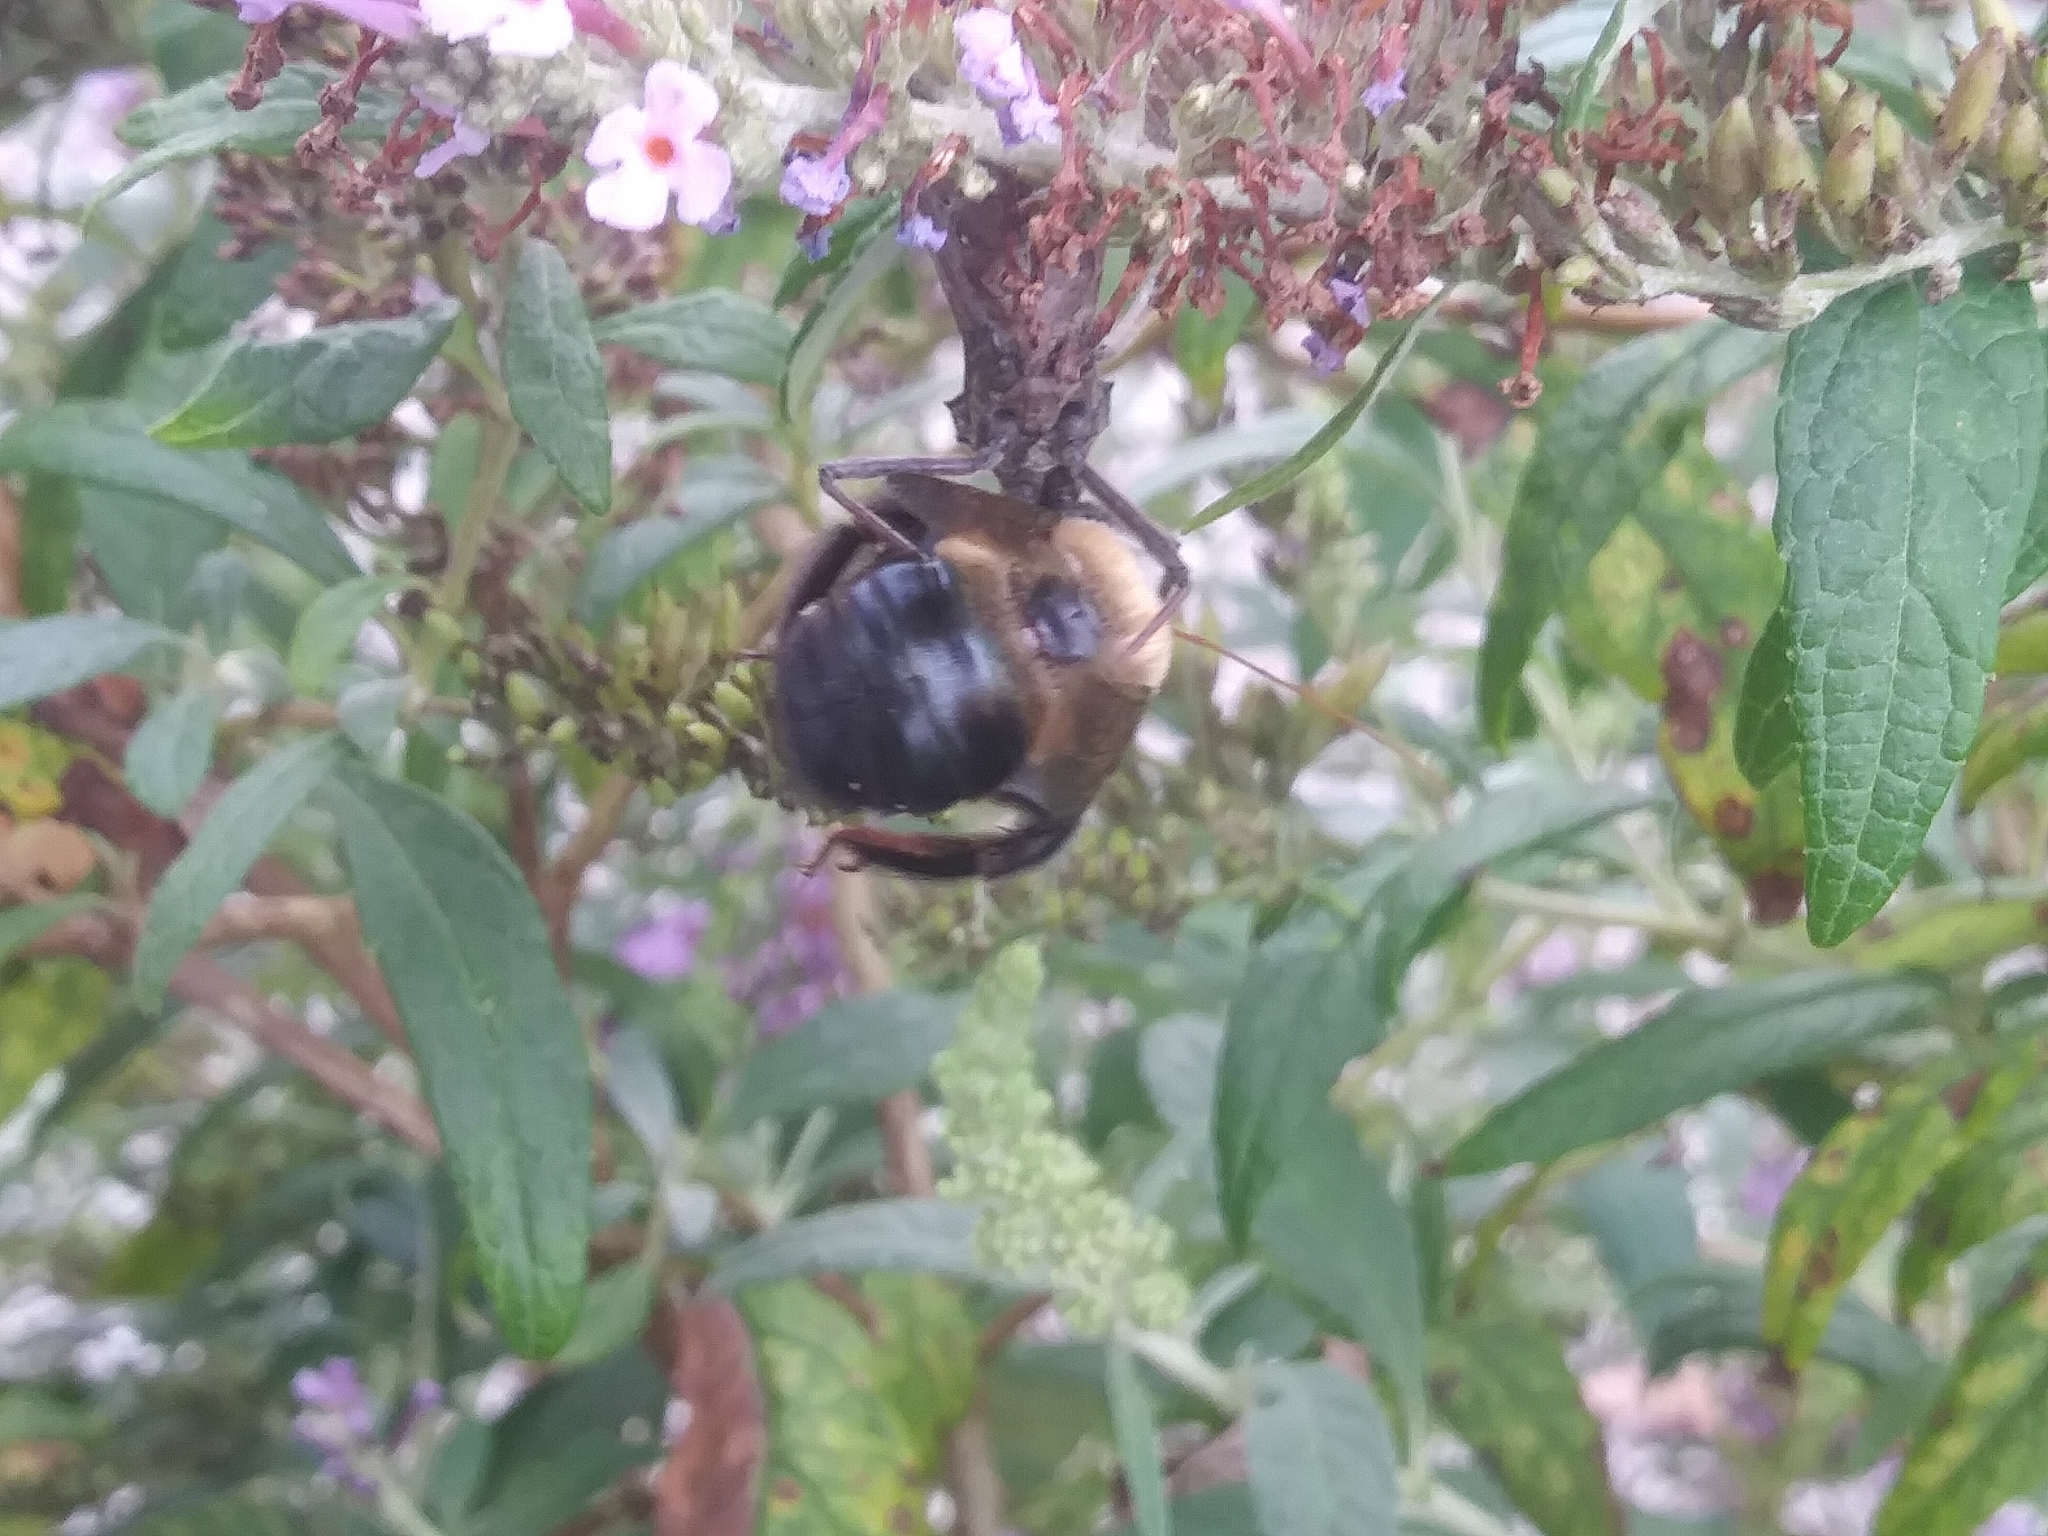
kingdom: Animalia
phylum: Arthropoda
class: Insecta
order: Hemiptera
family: Reduviidae
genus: Arilus
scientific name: Arilus cristatus
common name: North american wheel bug
